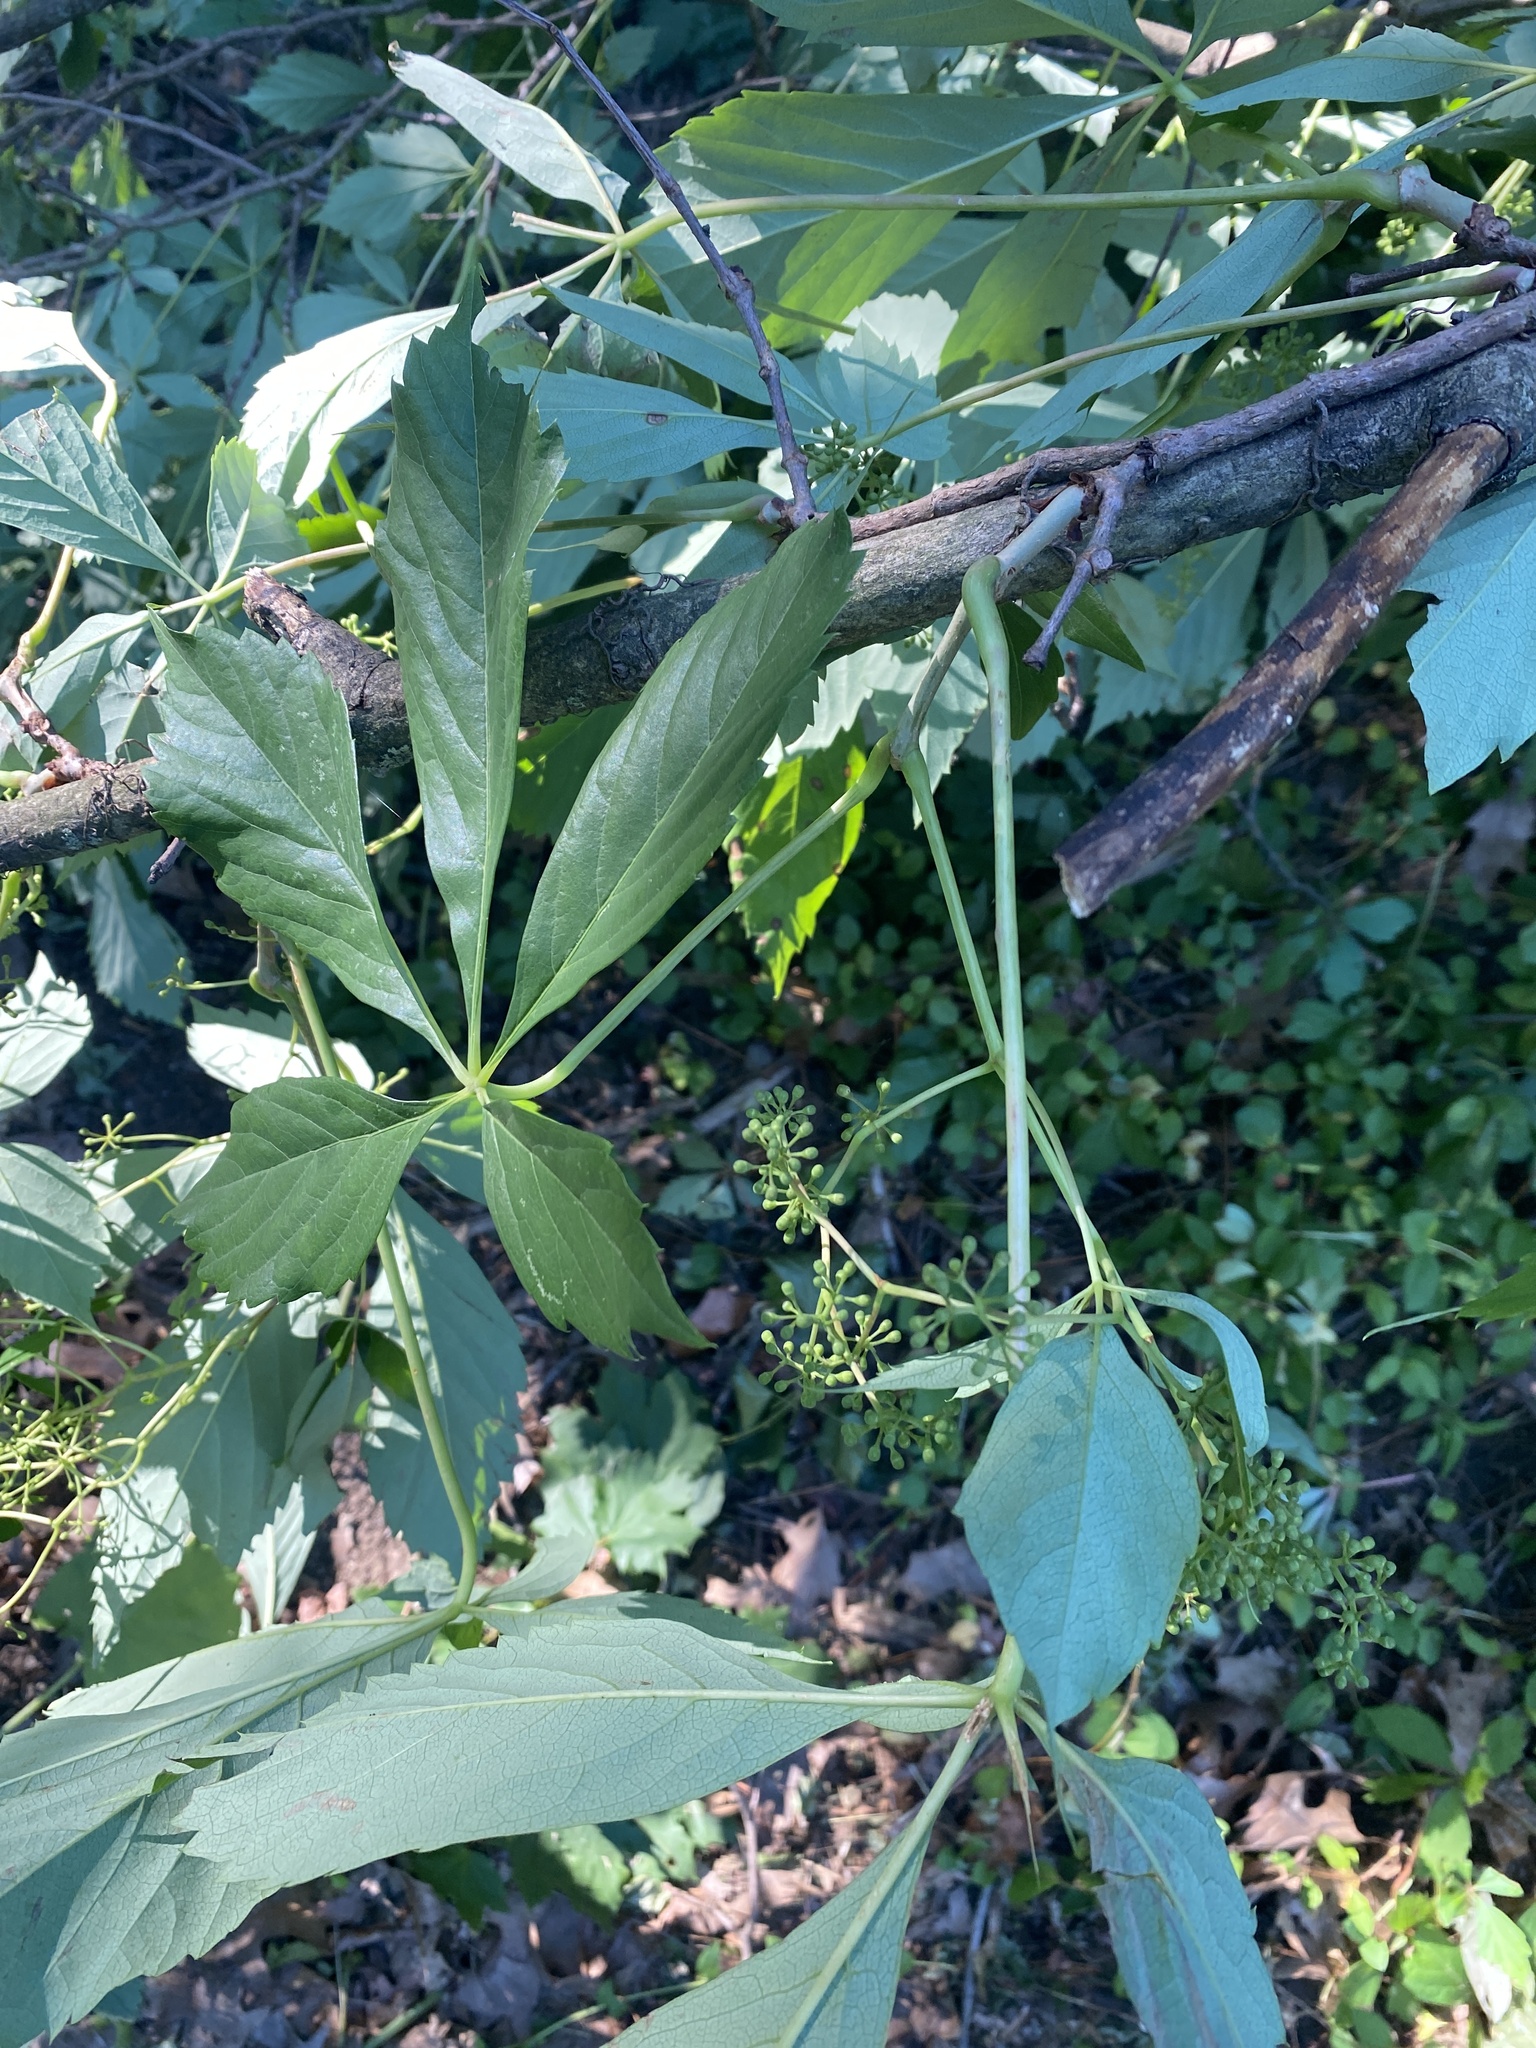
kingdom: Plantae
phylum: Tracheophyta
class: Magnoliopsida
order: Vitales
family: Vitaceae
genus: Parthenocissus
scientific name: Parthenocissus quinquefolia
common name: Virginia-creeper
